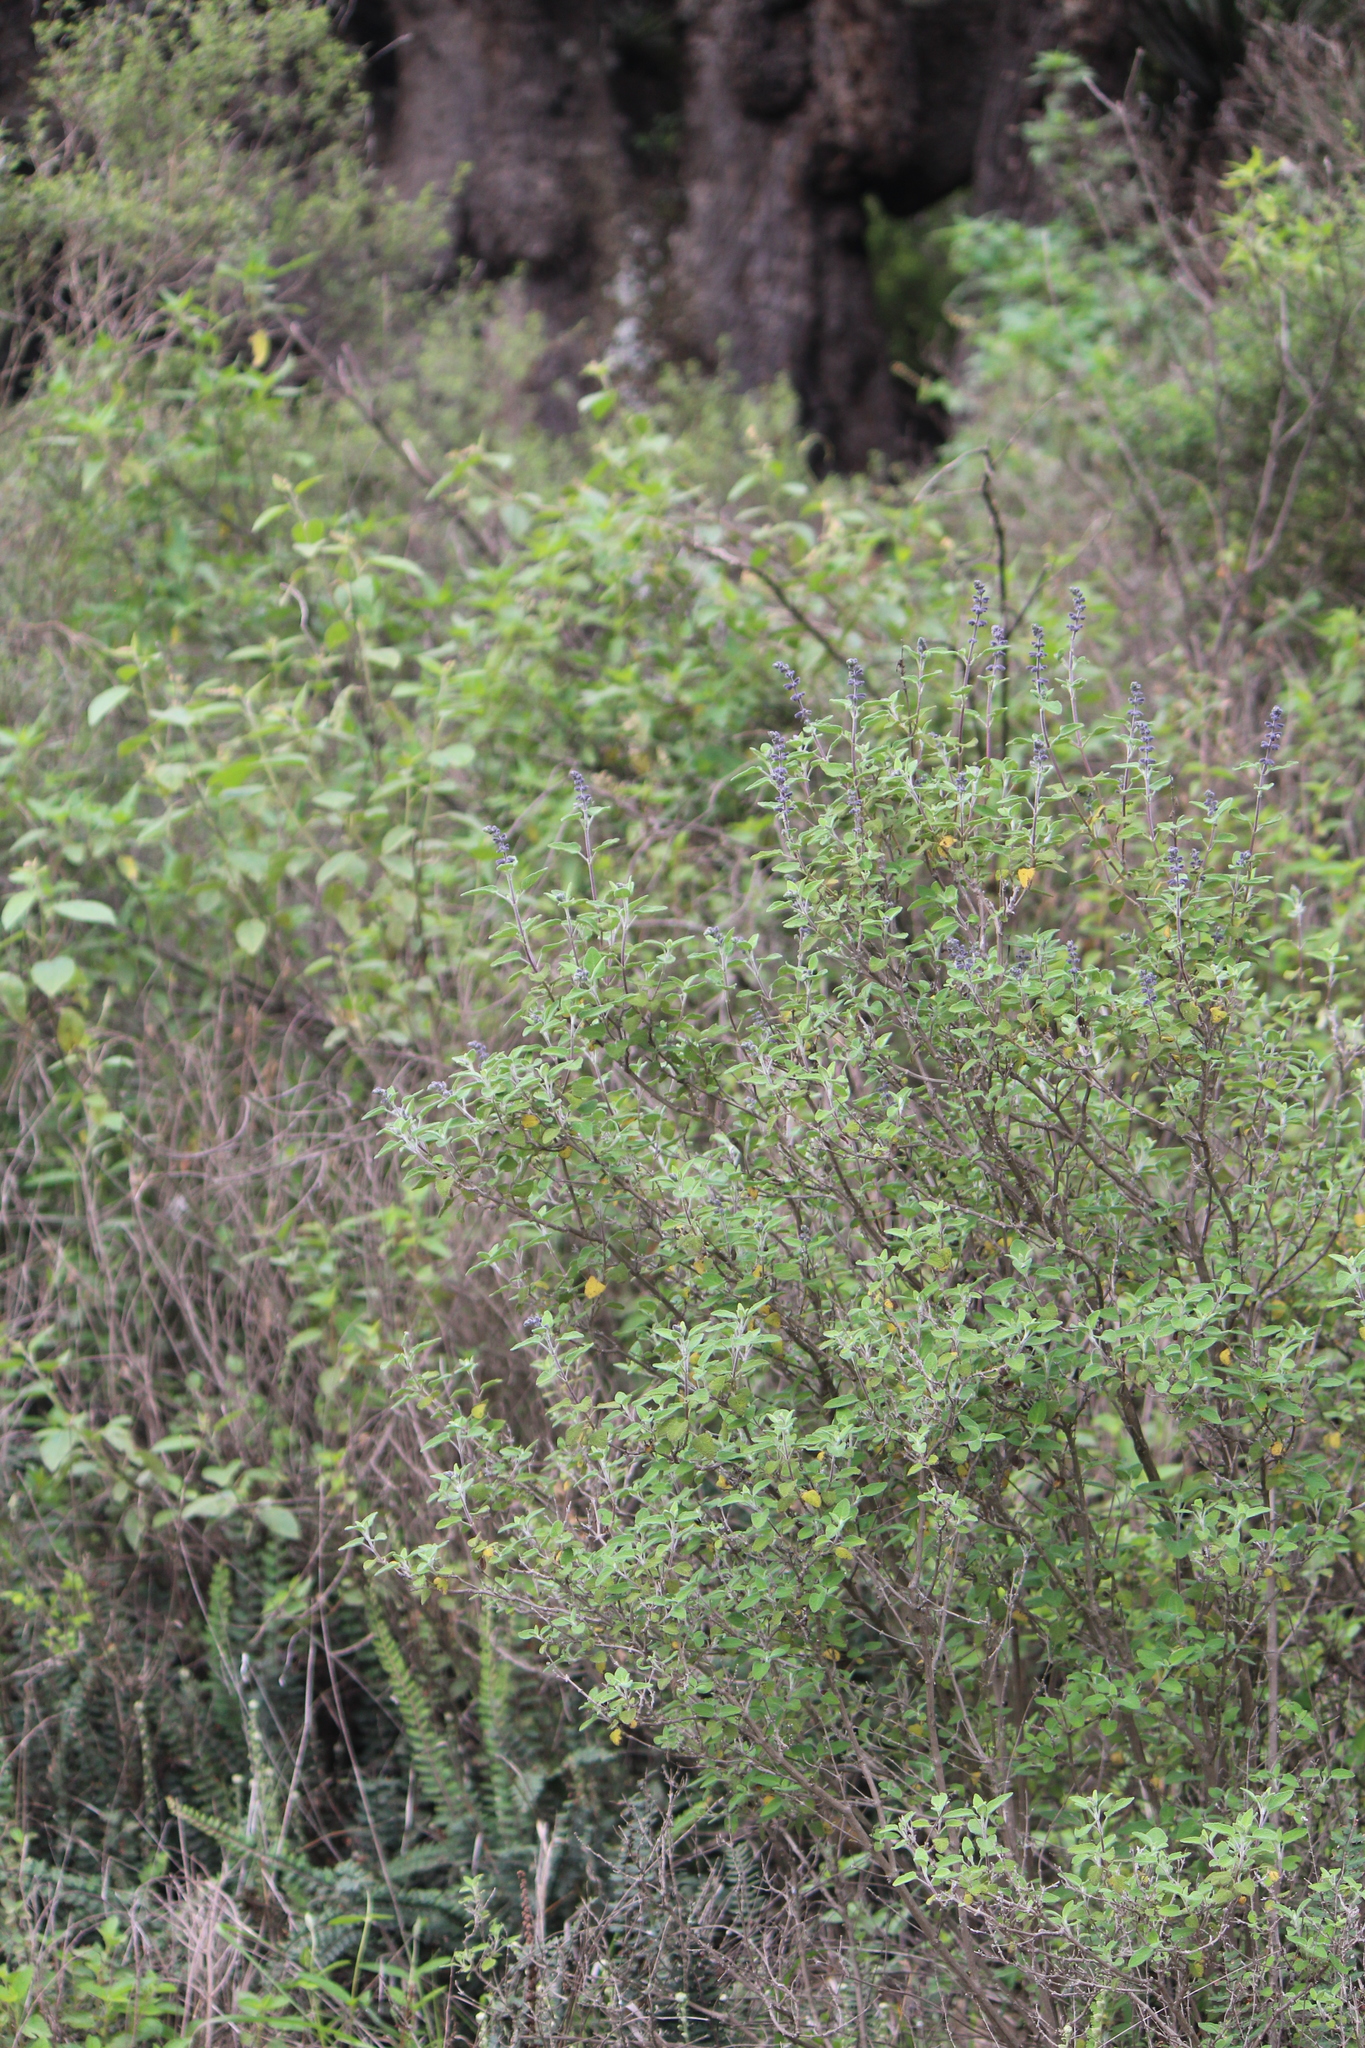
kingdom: Plantae
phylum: Tracheophyta
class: Magnoliopsida
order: Lamiales
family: Lamiaceae
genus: Salvia
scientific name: Salvia melissodora
